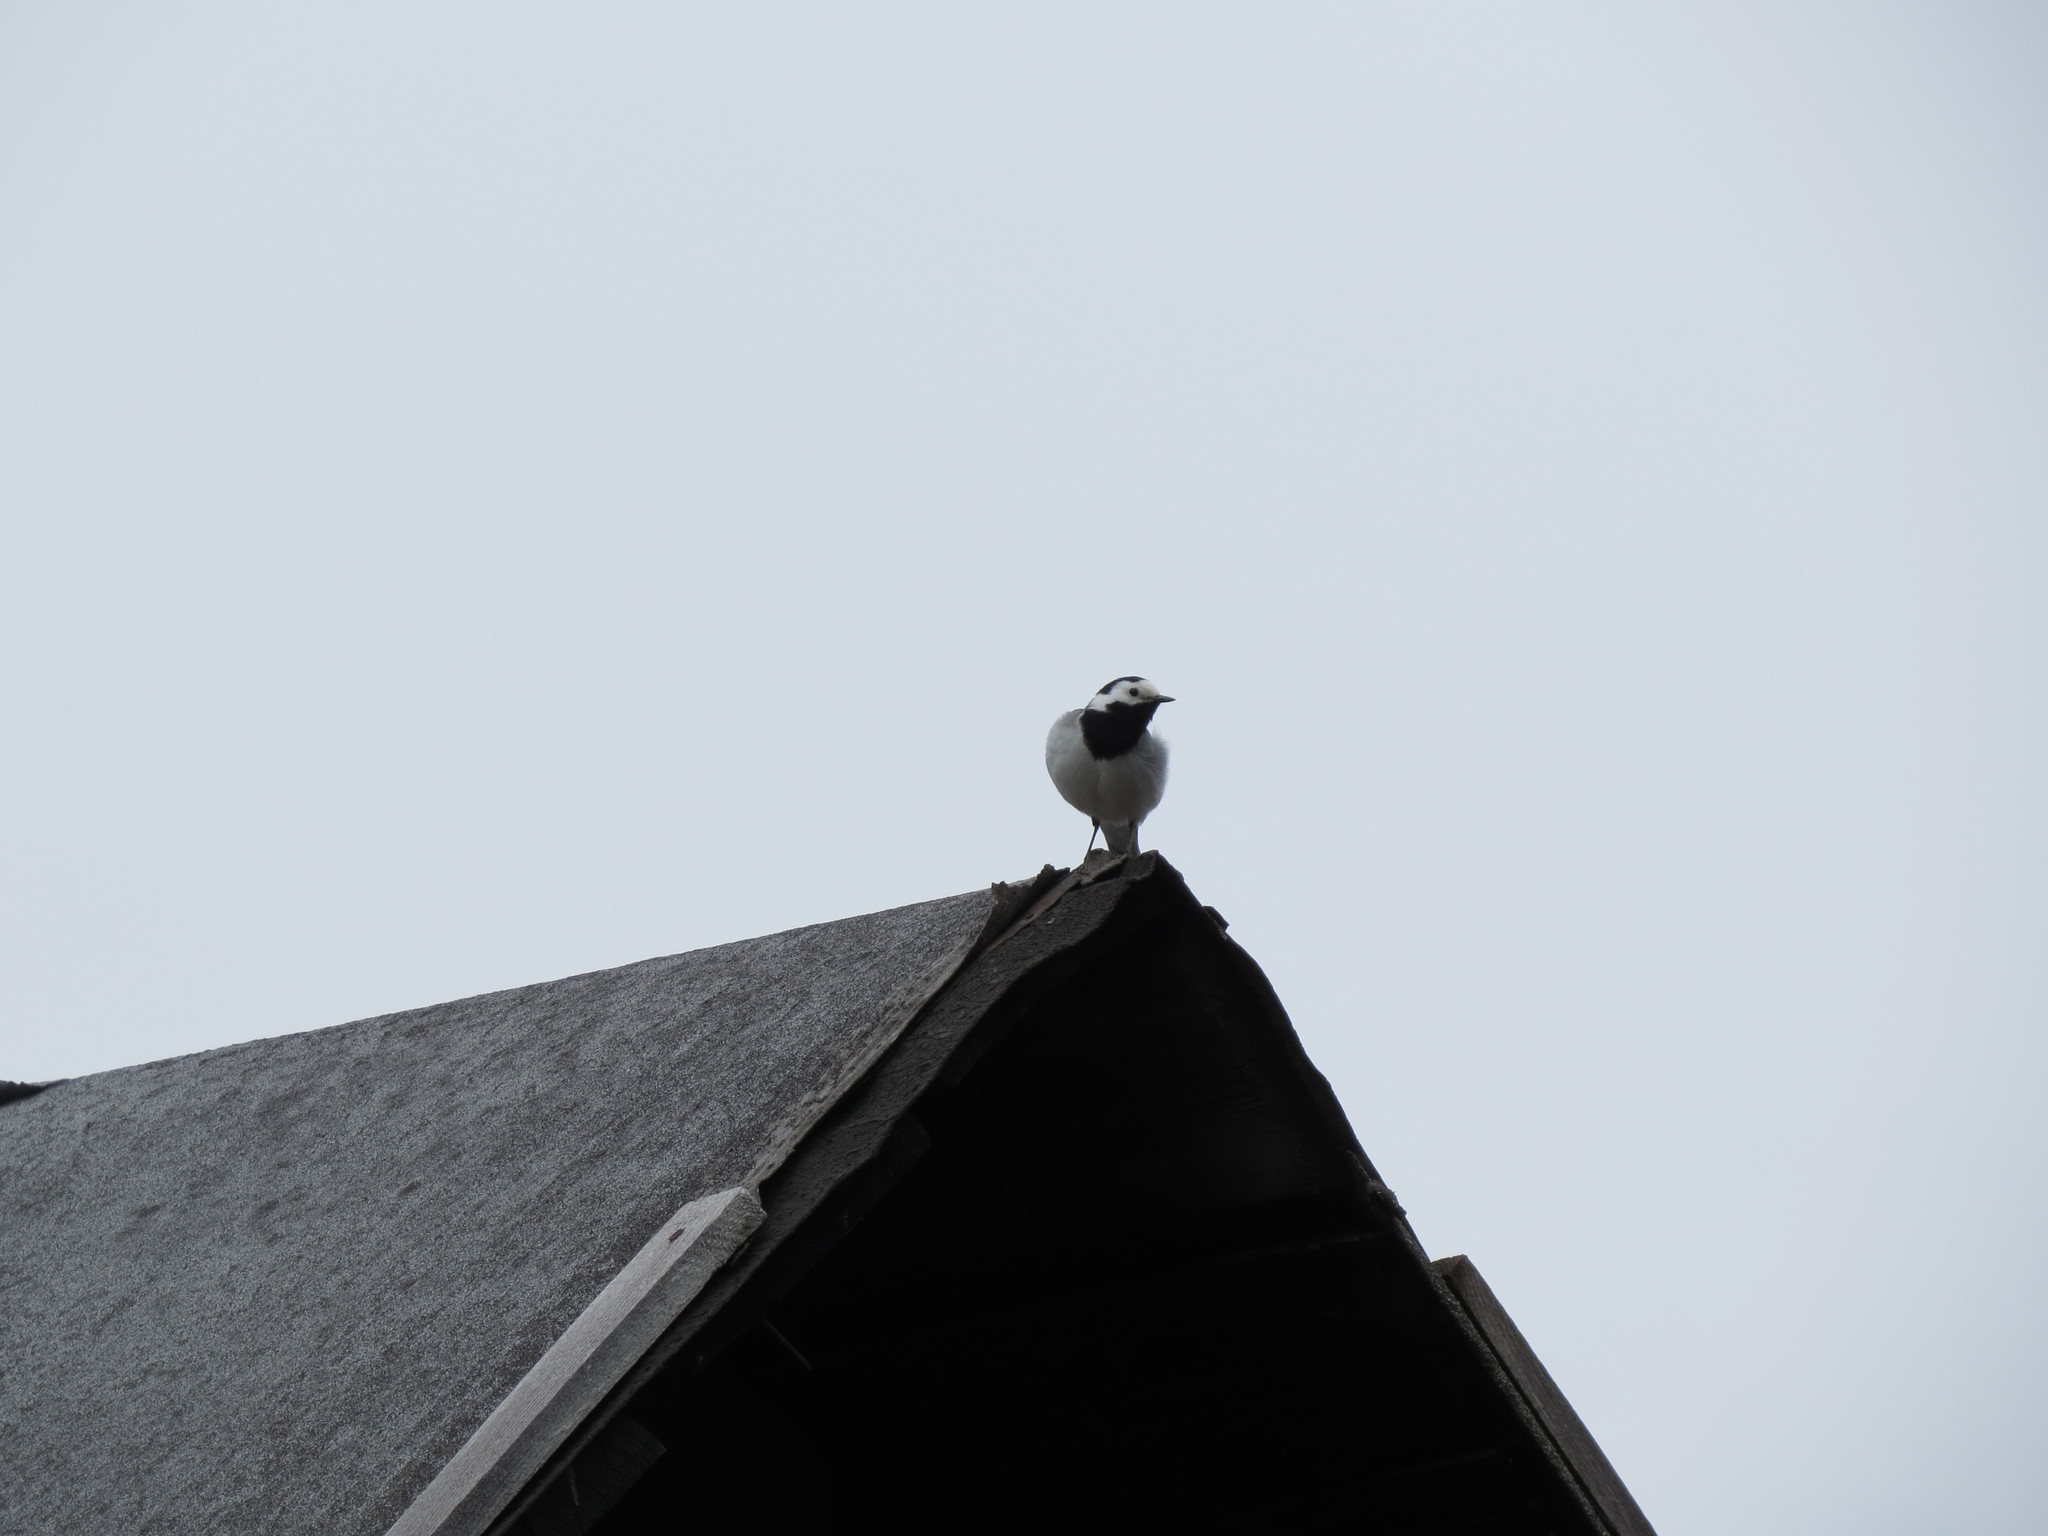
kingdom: Animalia
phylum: Chordata
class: Aves
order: Passeriformes
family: Motacillidae
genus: Motacilla
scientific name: Motacilla alba
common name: White wagtail
